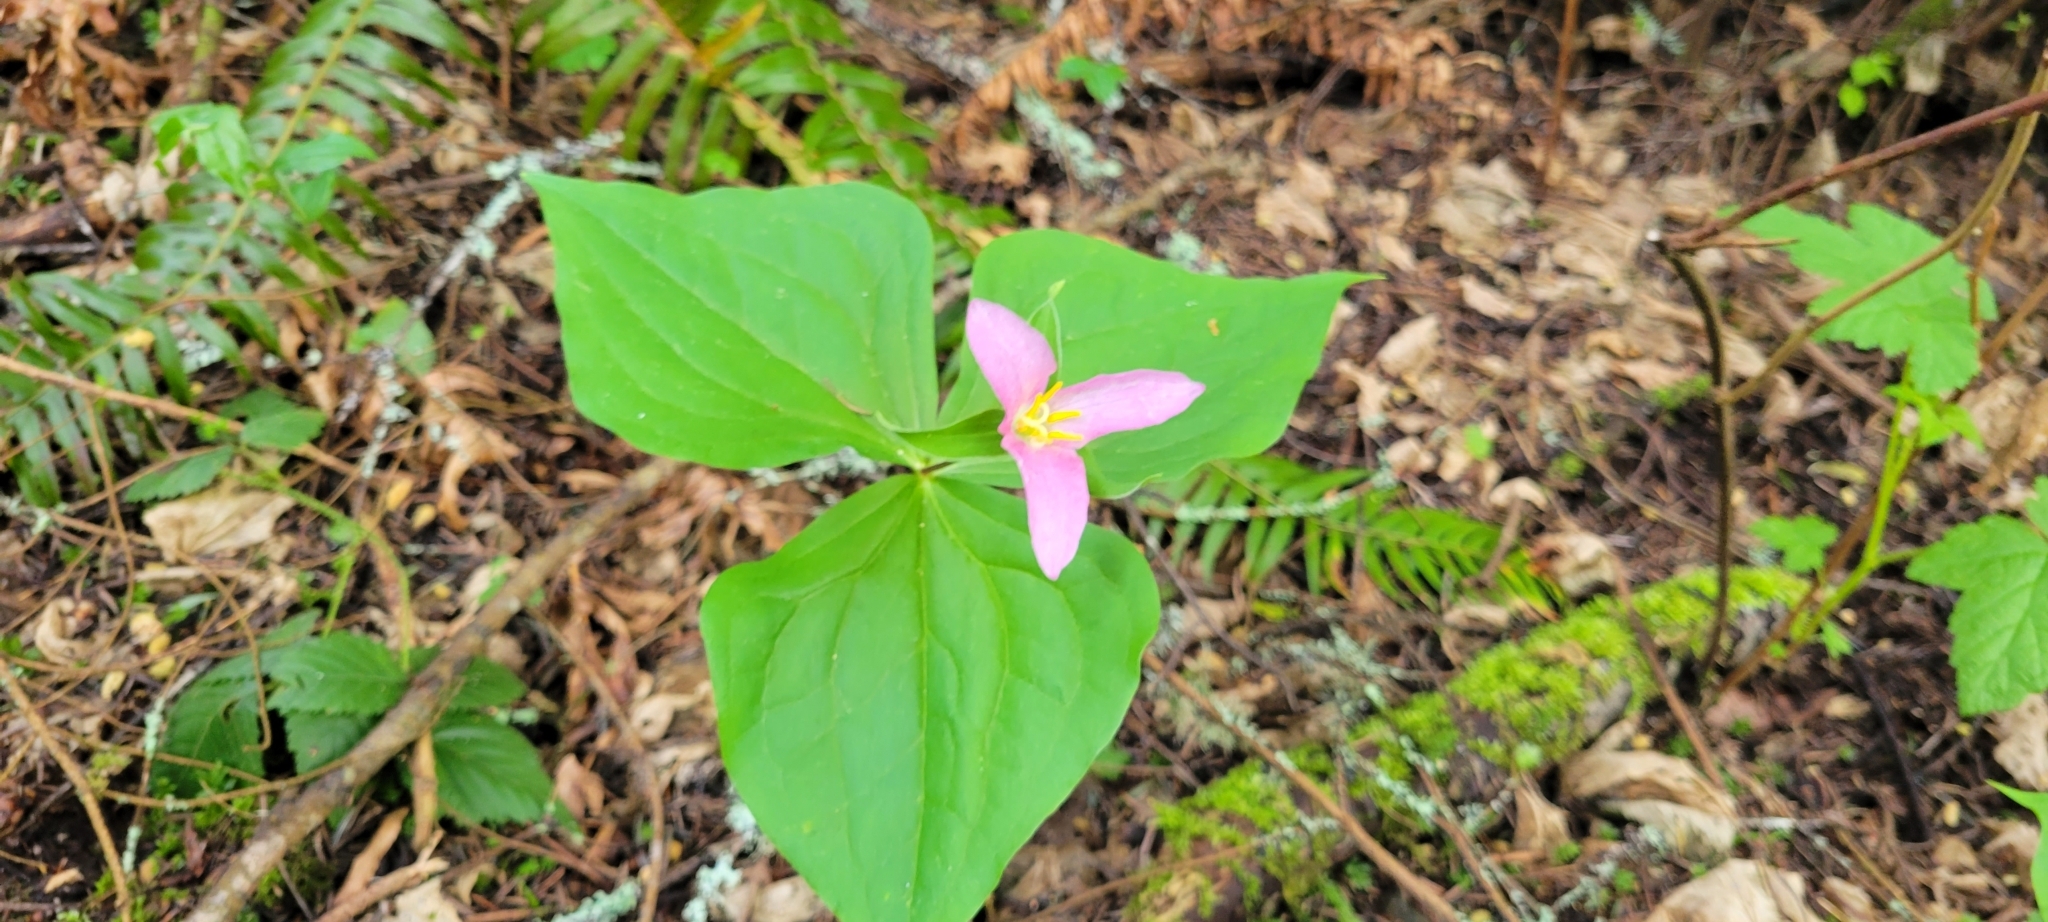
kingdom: Plantae
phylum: Tracheophyta
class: Liliopsida
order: Liliales
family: Melanthiaceae
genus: Trillium
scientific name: Trillium ovatum
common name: Pacific trillium
